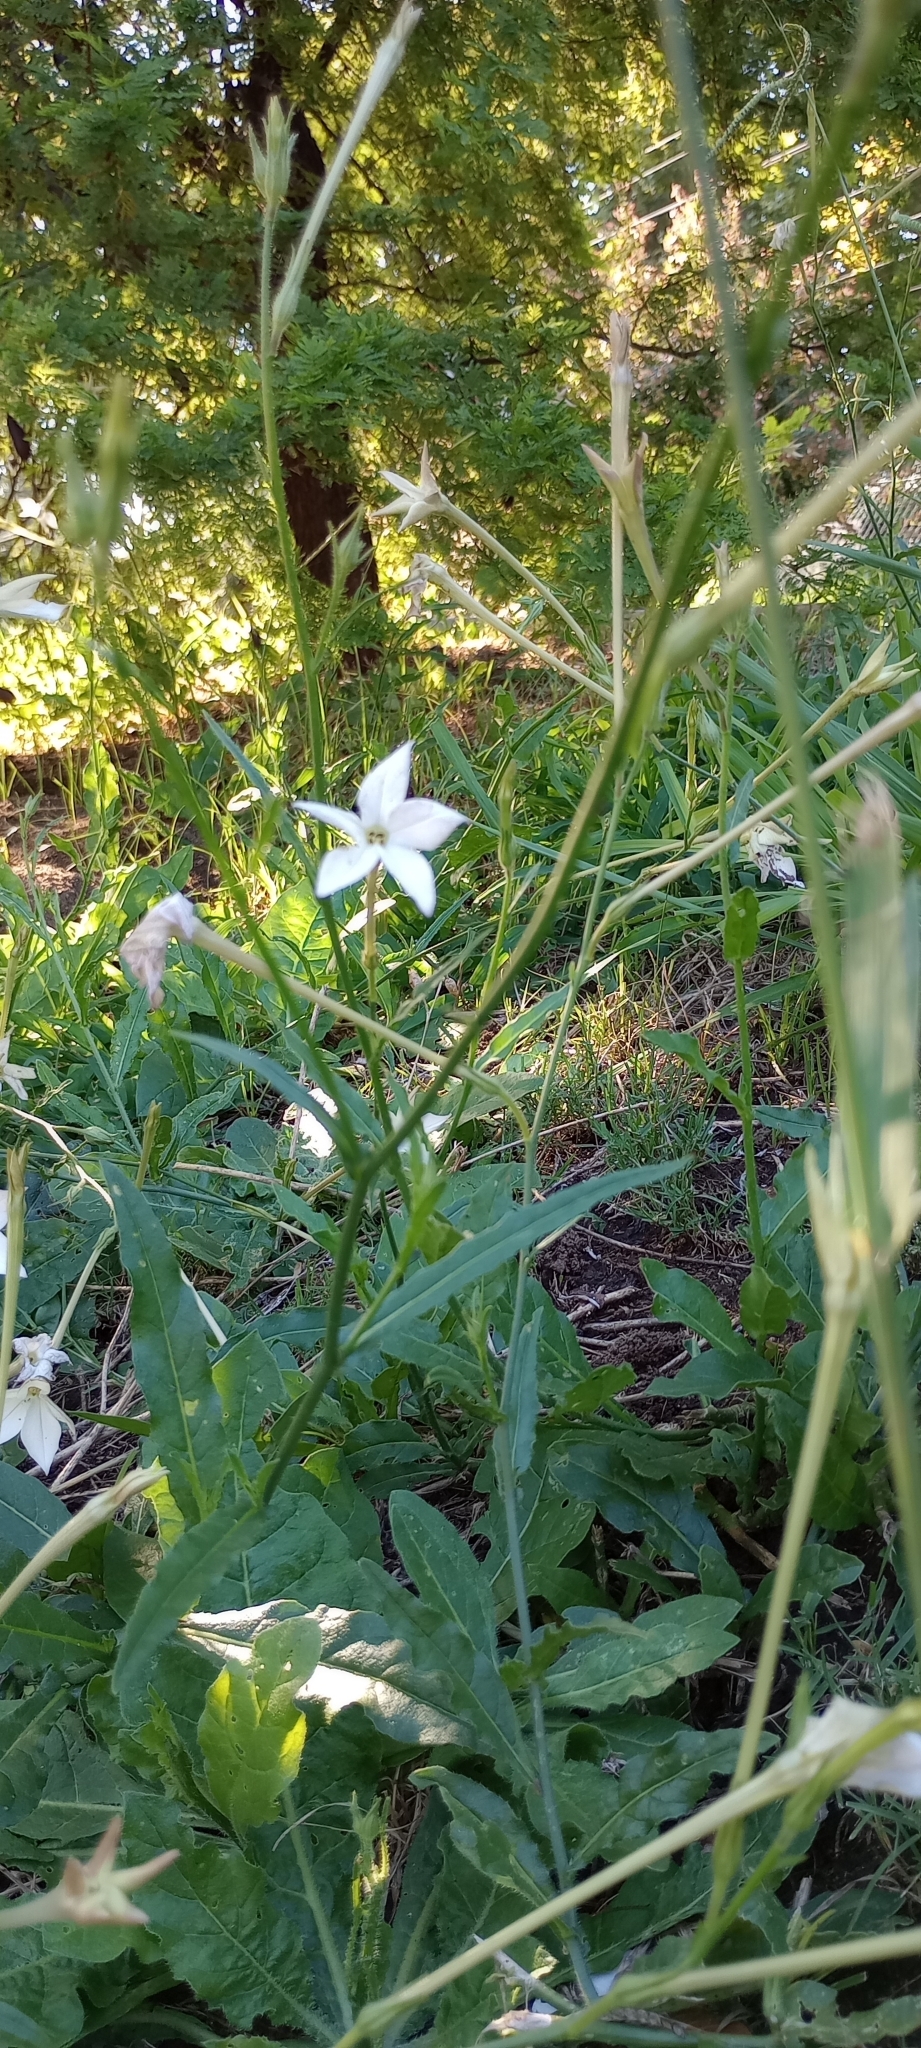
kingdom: Plantae
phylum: Tracheophyta
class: Magnoliopsida
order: Solanales
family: Solanaceae
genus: Nicotiana
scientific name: Nicotiana longiflora
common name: Long-flowered tobacco
